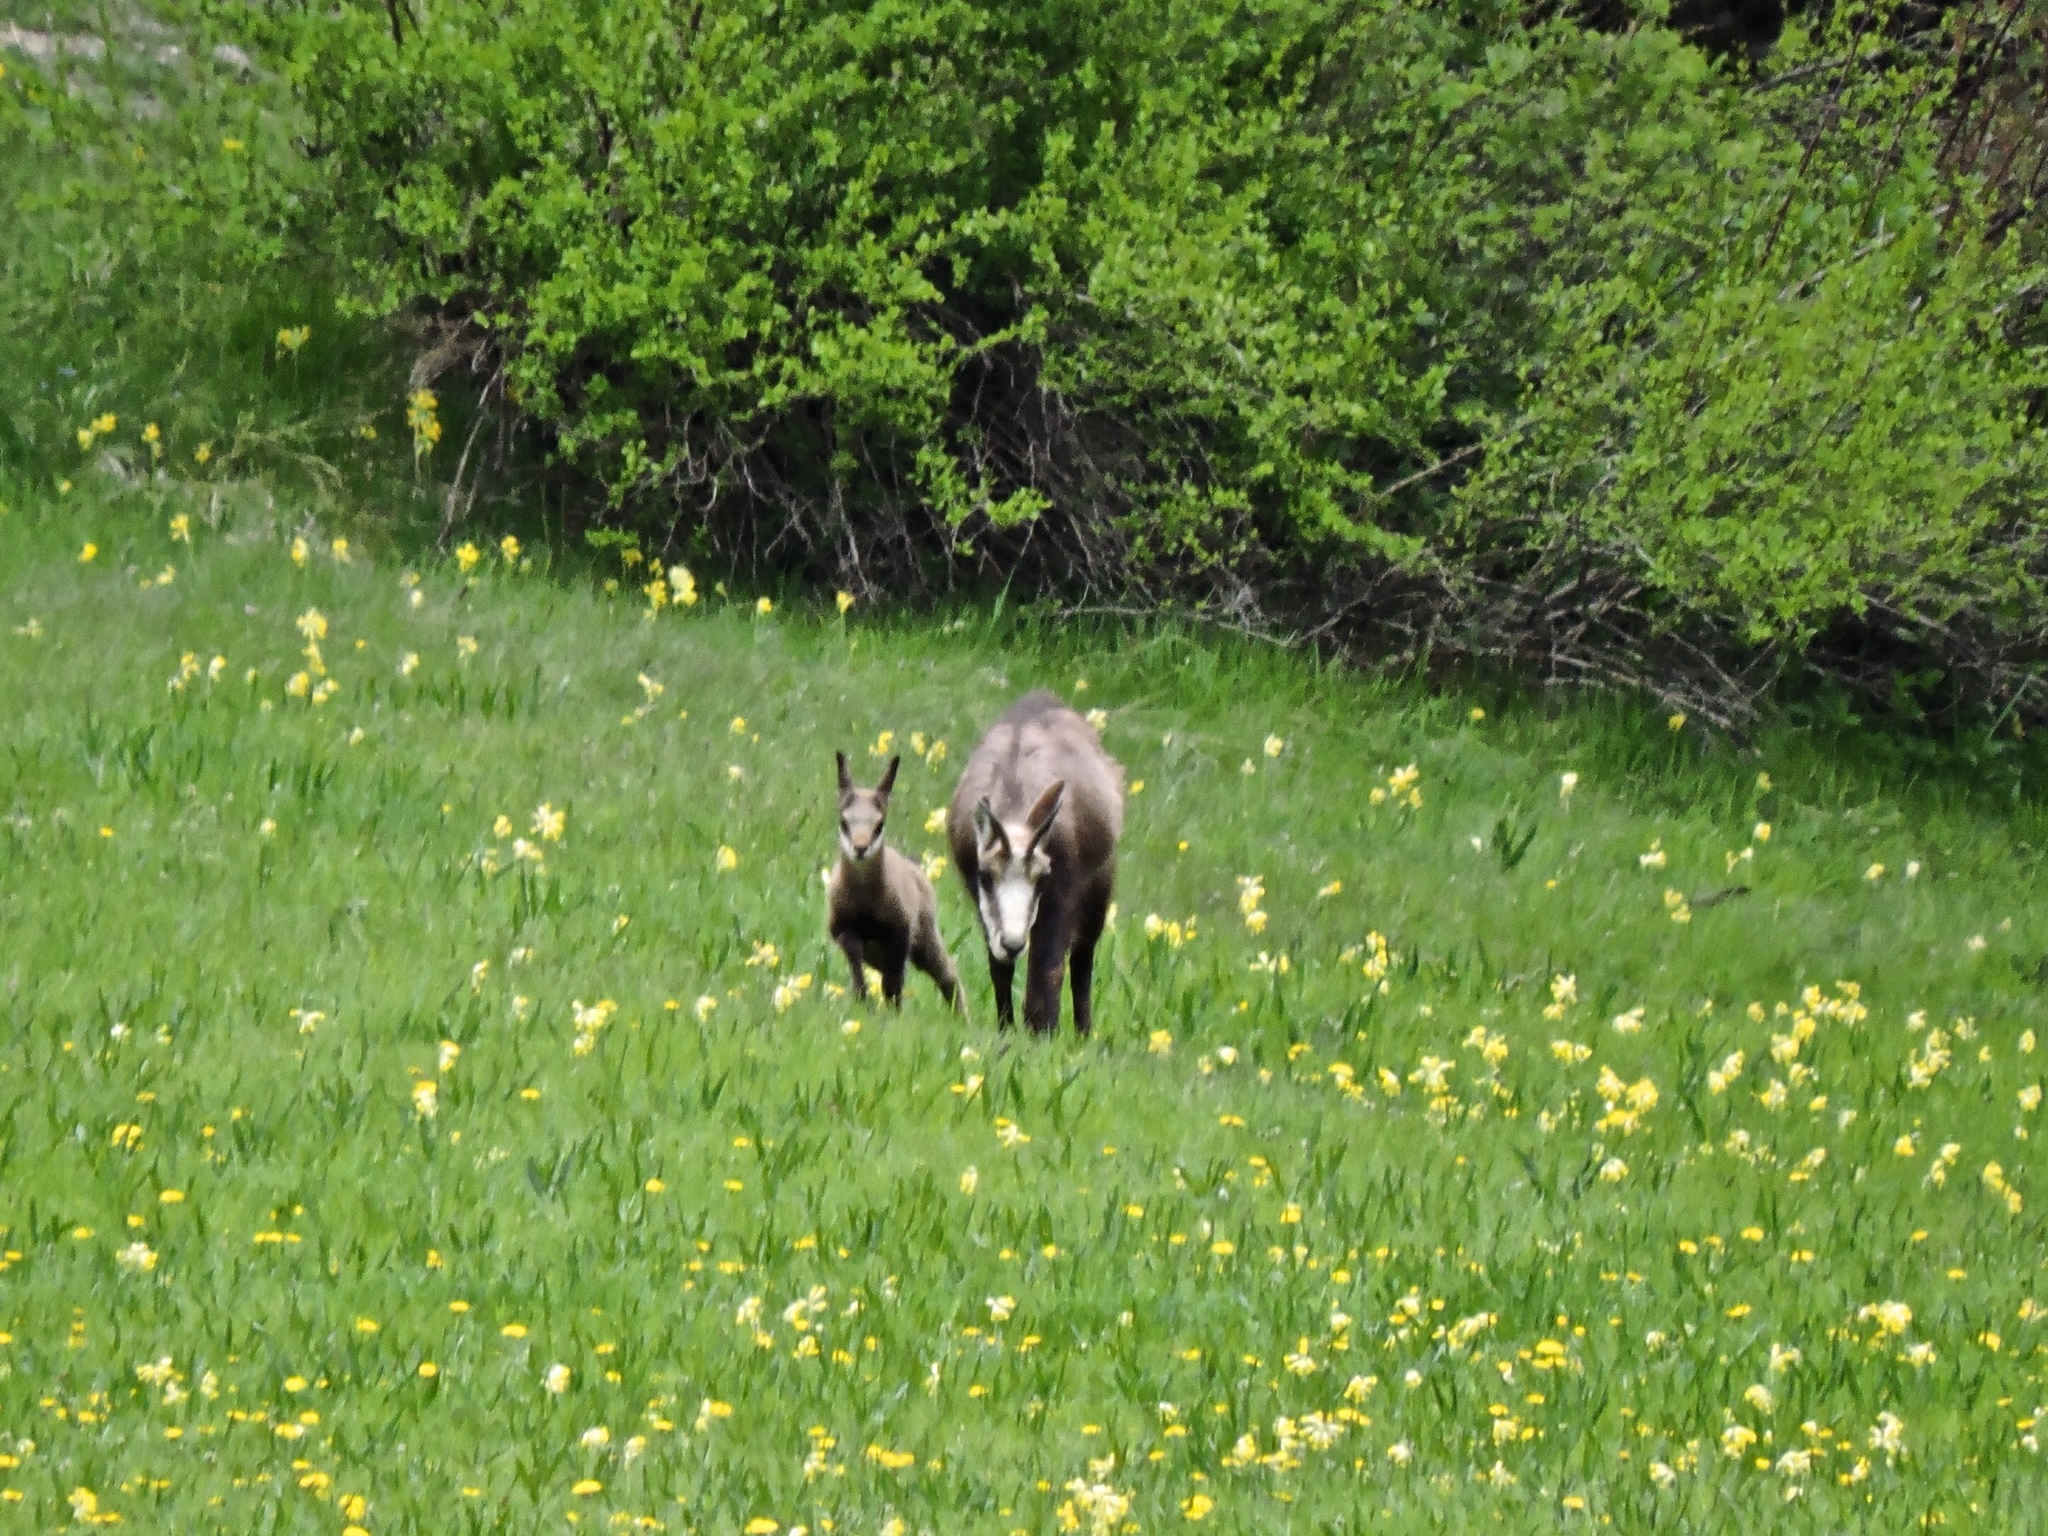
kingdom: Animalia
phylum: Chordata
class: Mammalia
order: Artiodactyla
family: Bovidae
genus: Rupicapra
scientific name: Rupicapra rupicapra
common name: Chamois
